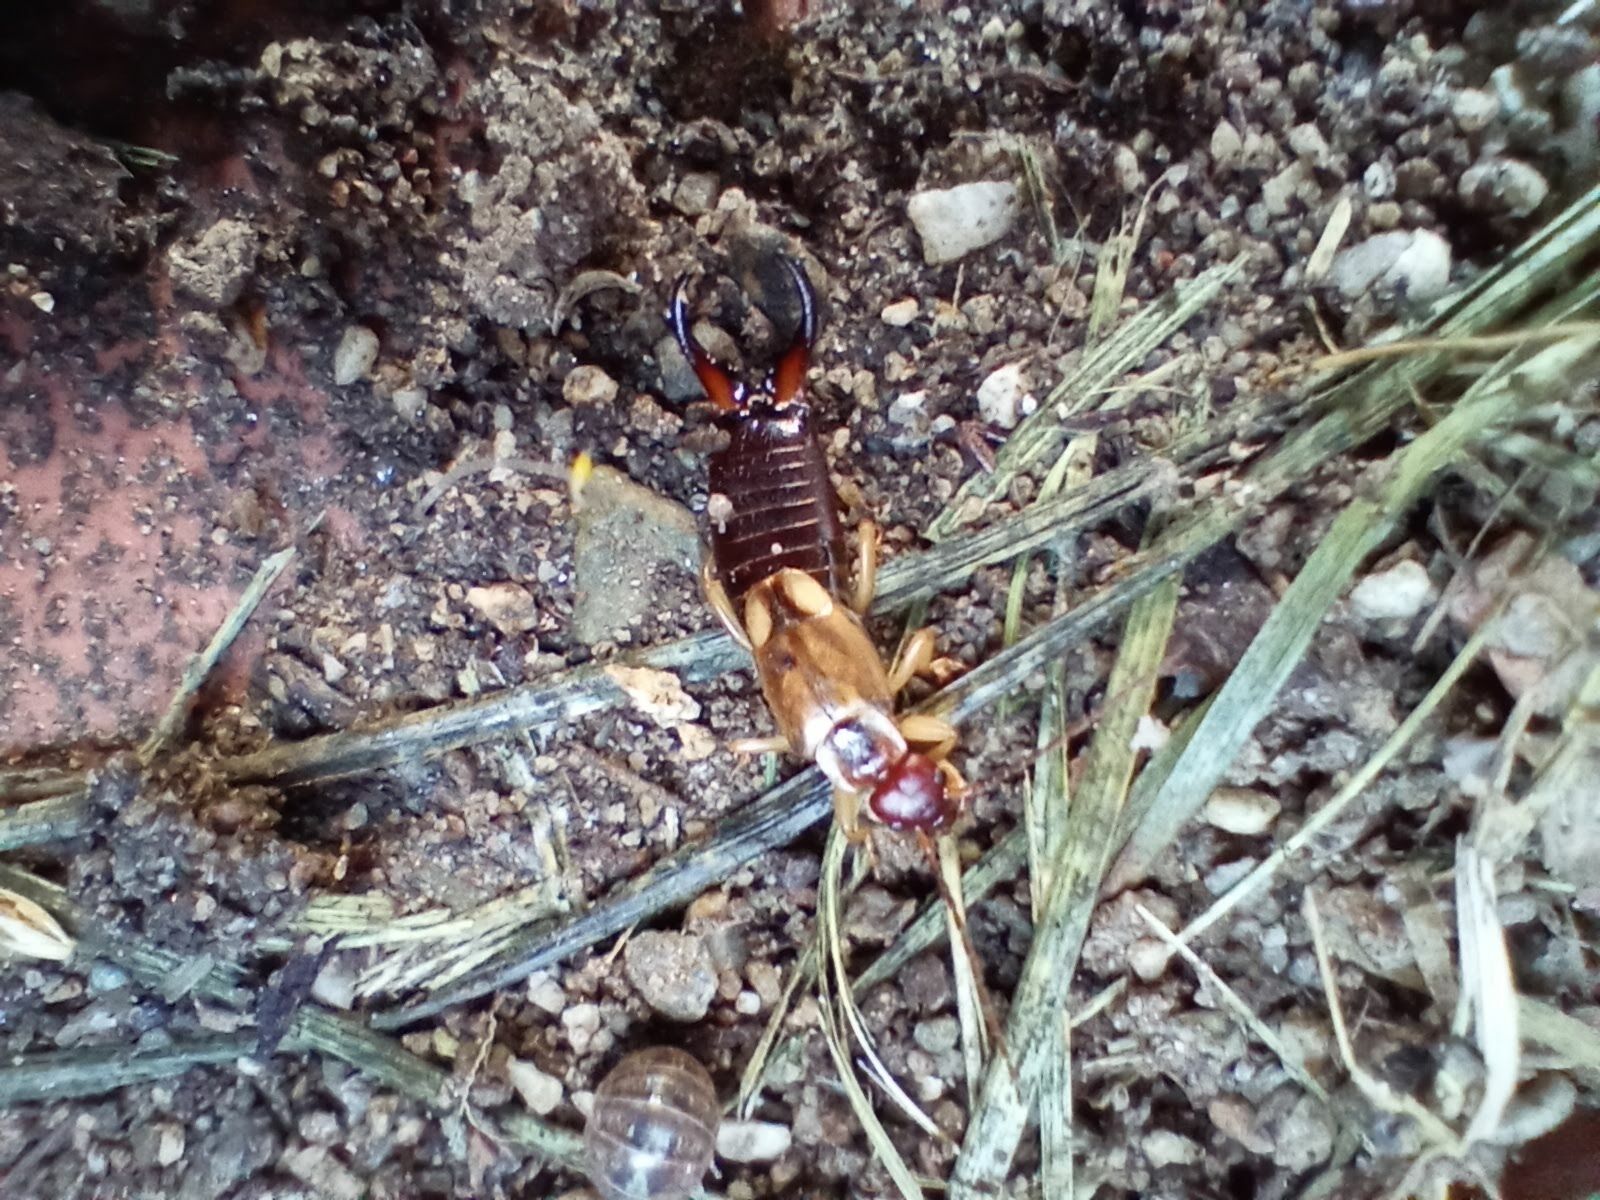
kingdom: Animalia
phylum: Arthropoda
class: Insecta
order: Dermaptera
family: Forficulidae
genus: Forficula
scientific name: Forficula
